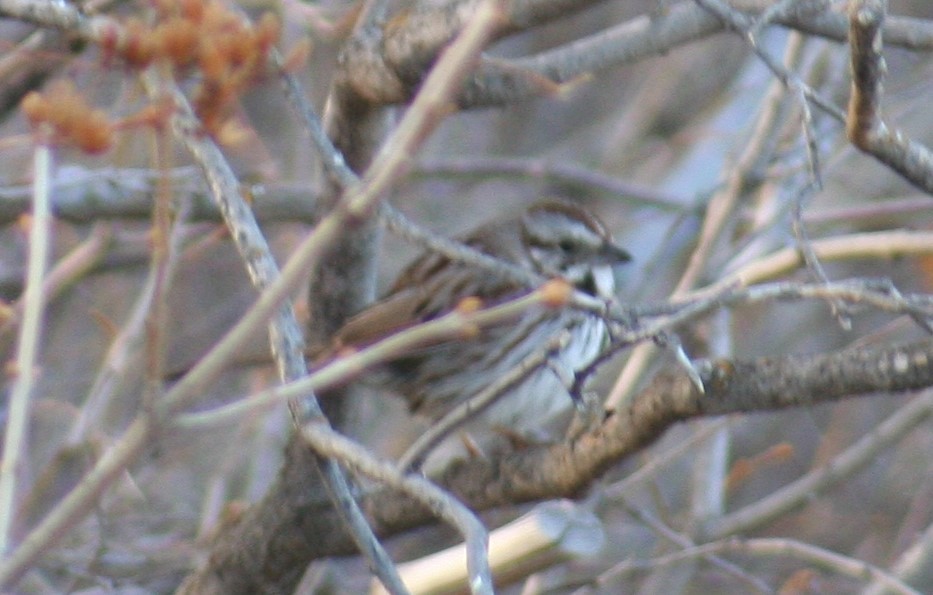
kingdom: Animalia
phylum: Chordata
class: Aves
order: Passeriformes
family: Passerellidae
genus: Melospiza
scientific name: Melospiza melodia
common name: Song sparrow
